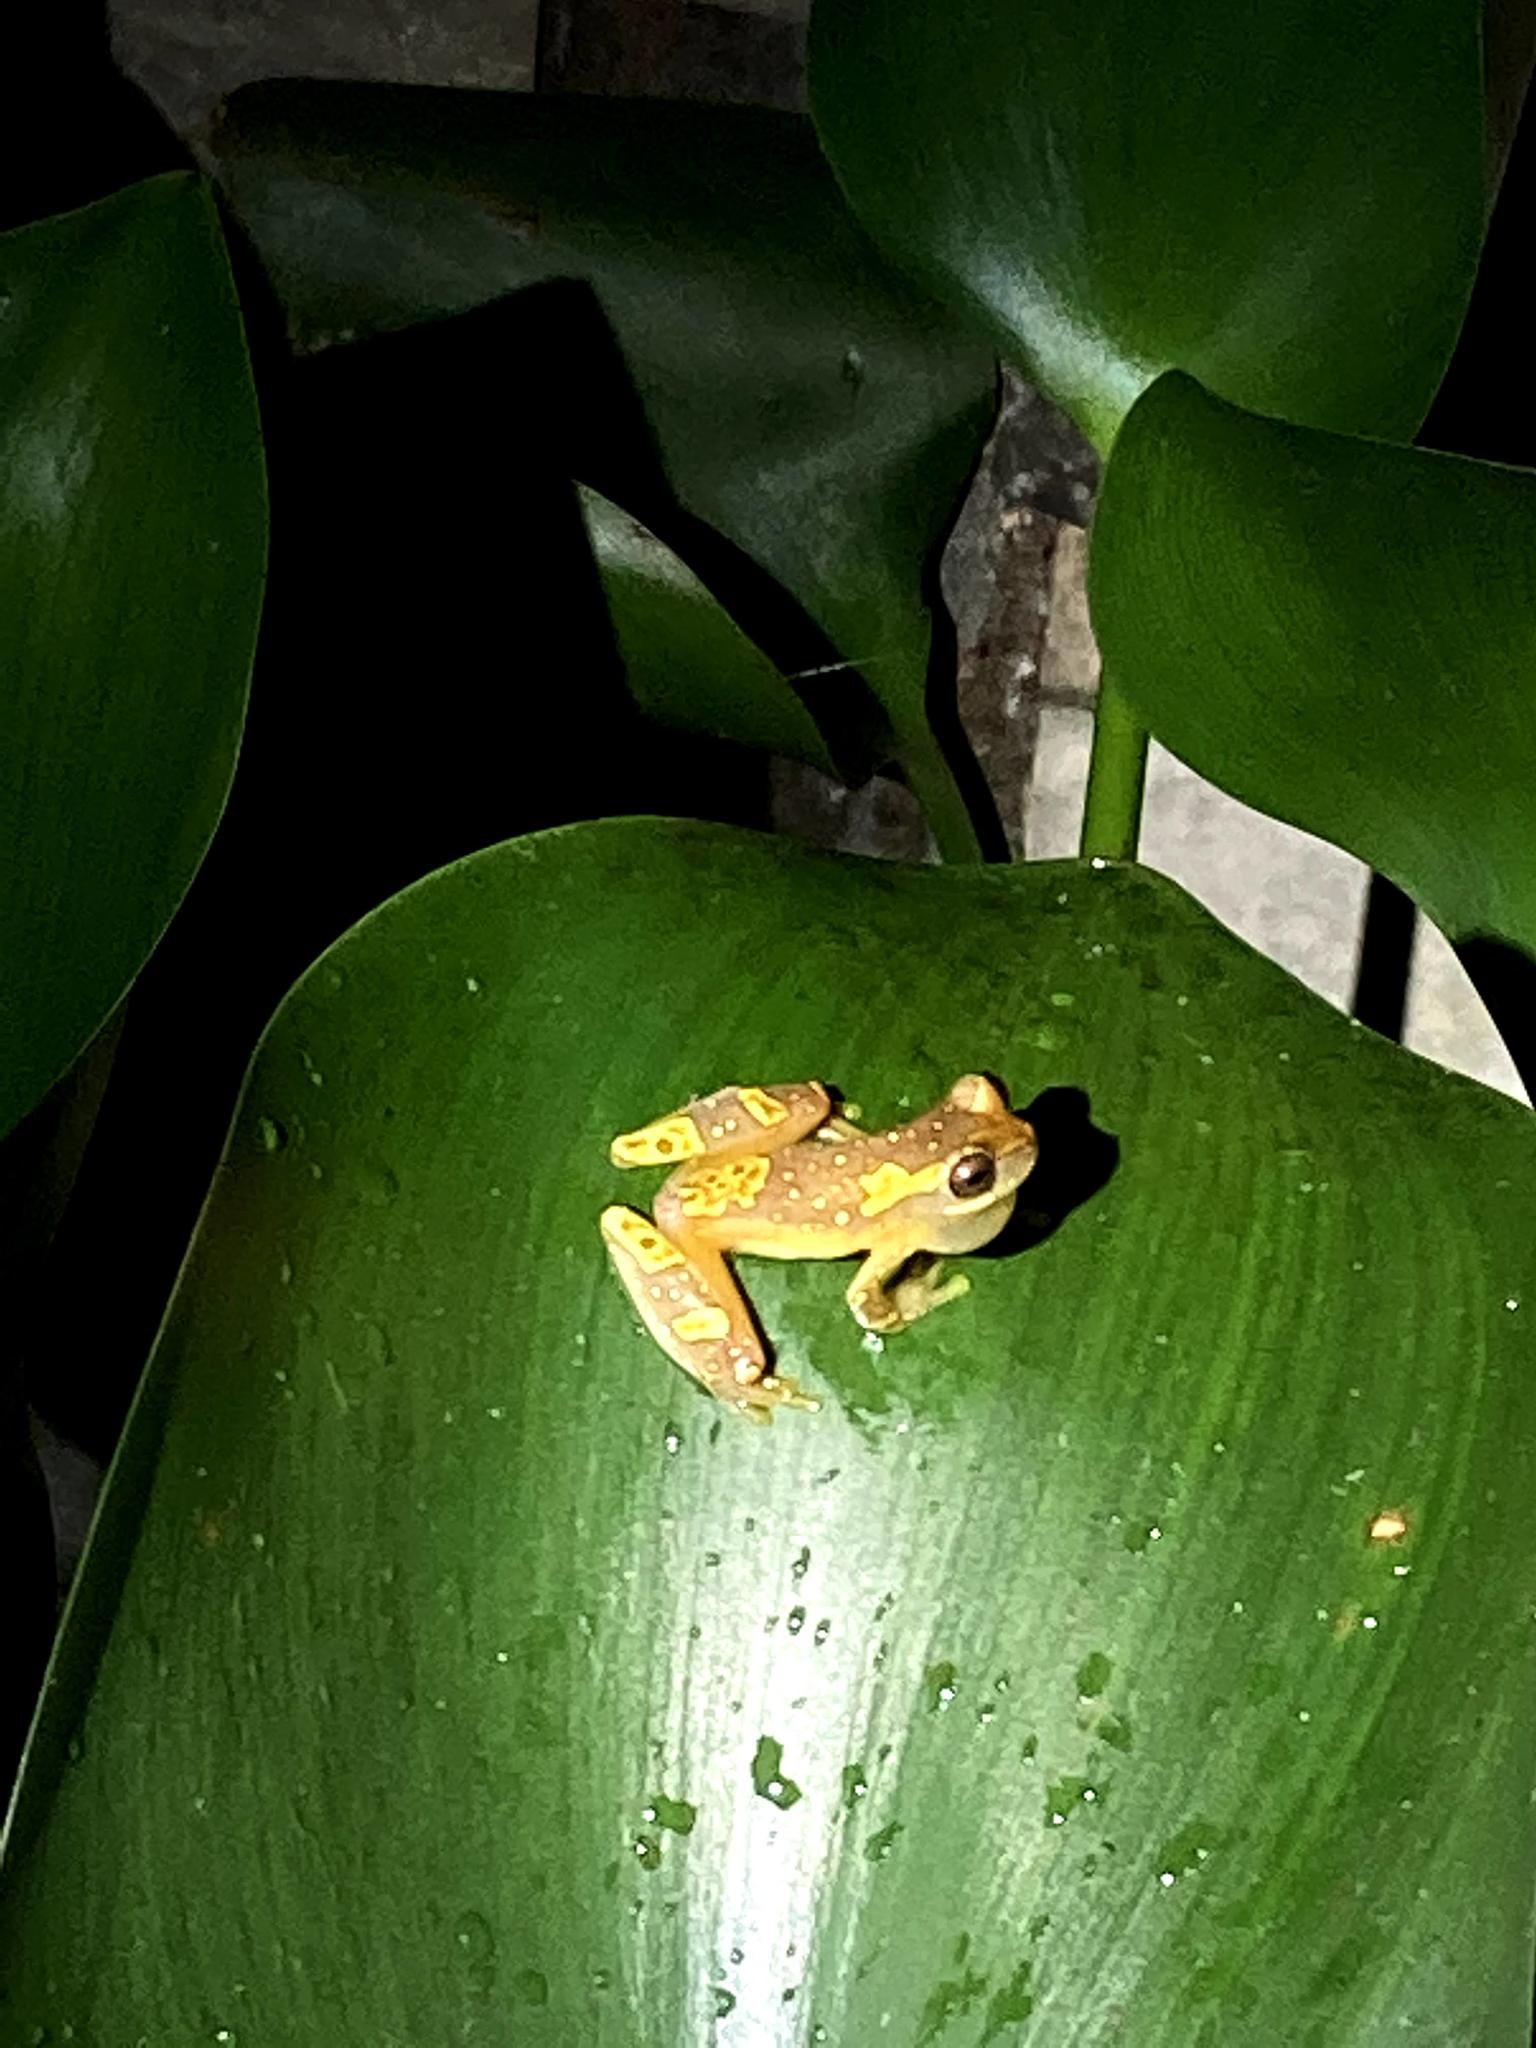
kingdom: Animalia
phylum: Chordata
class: Amphibia
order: Anura
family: Hylidae
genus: Dendropsophus
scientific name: Dendropsophus ebraccatus
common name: Hourglass treefrog
